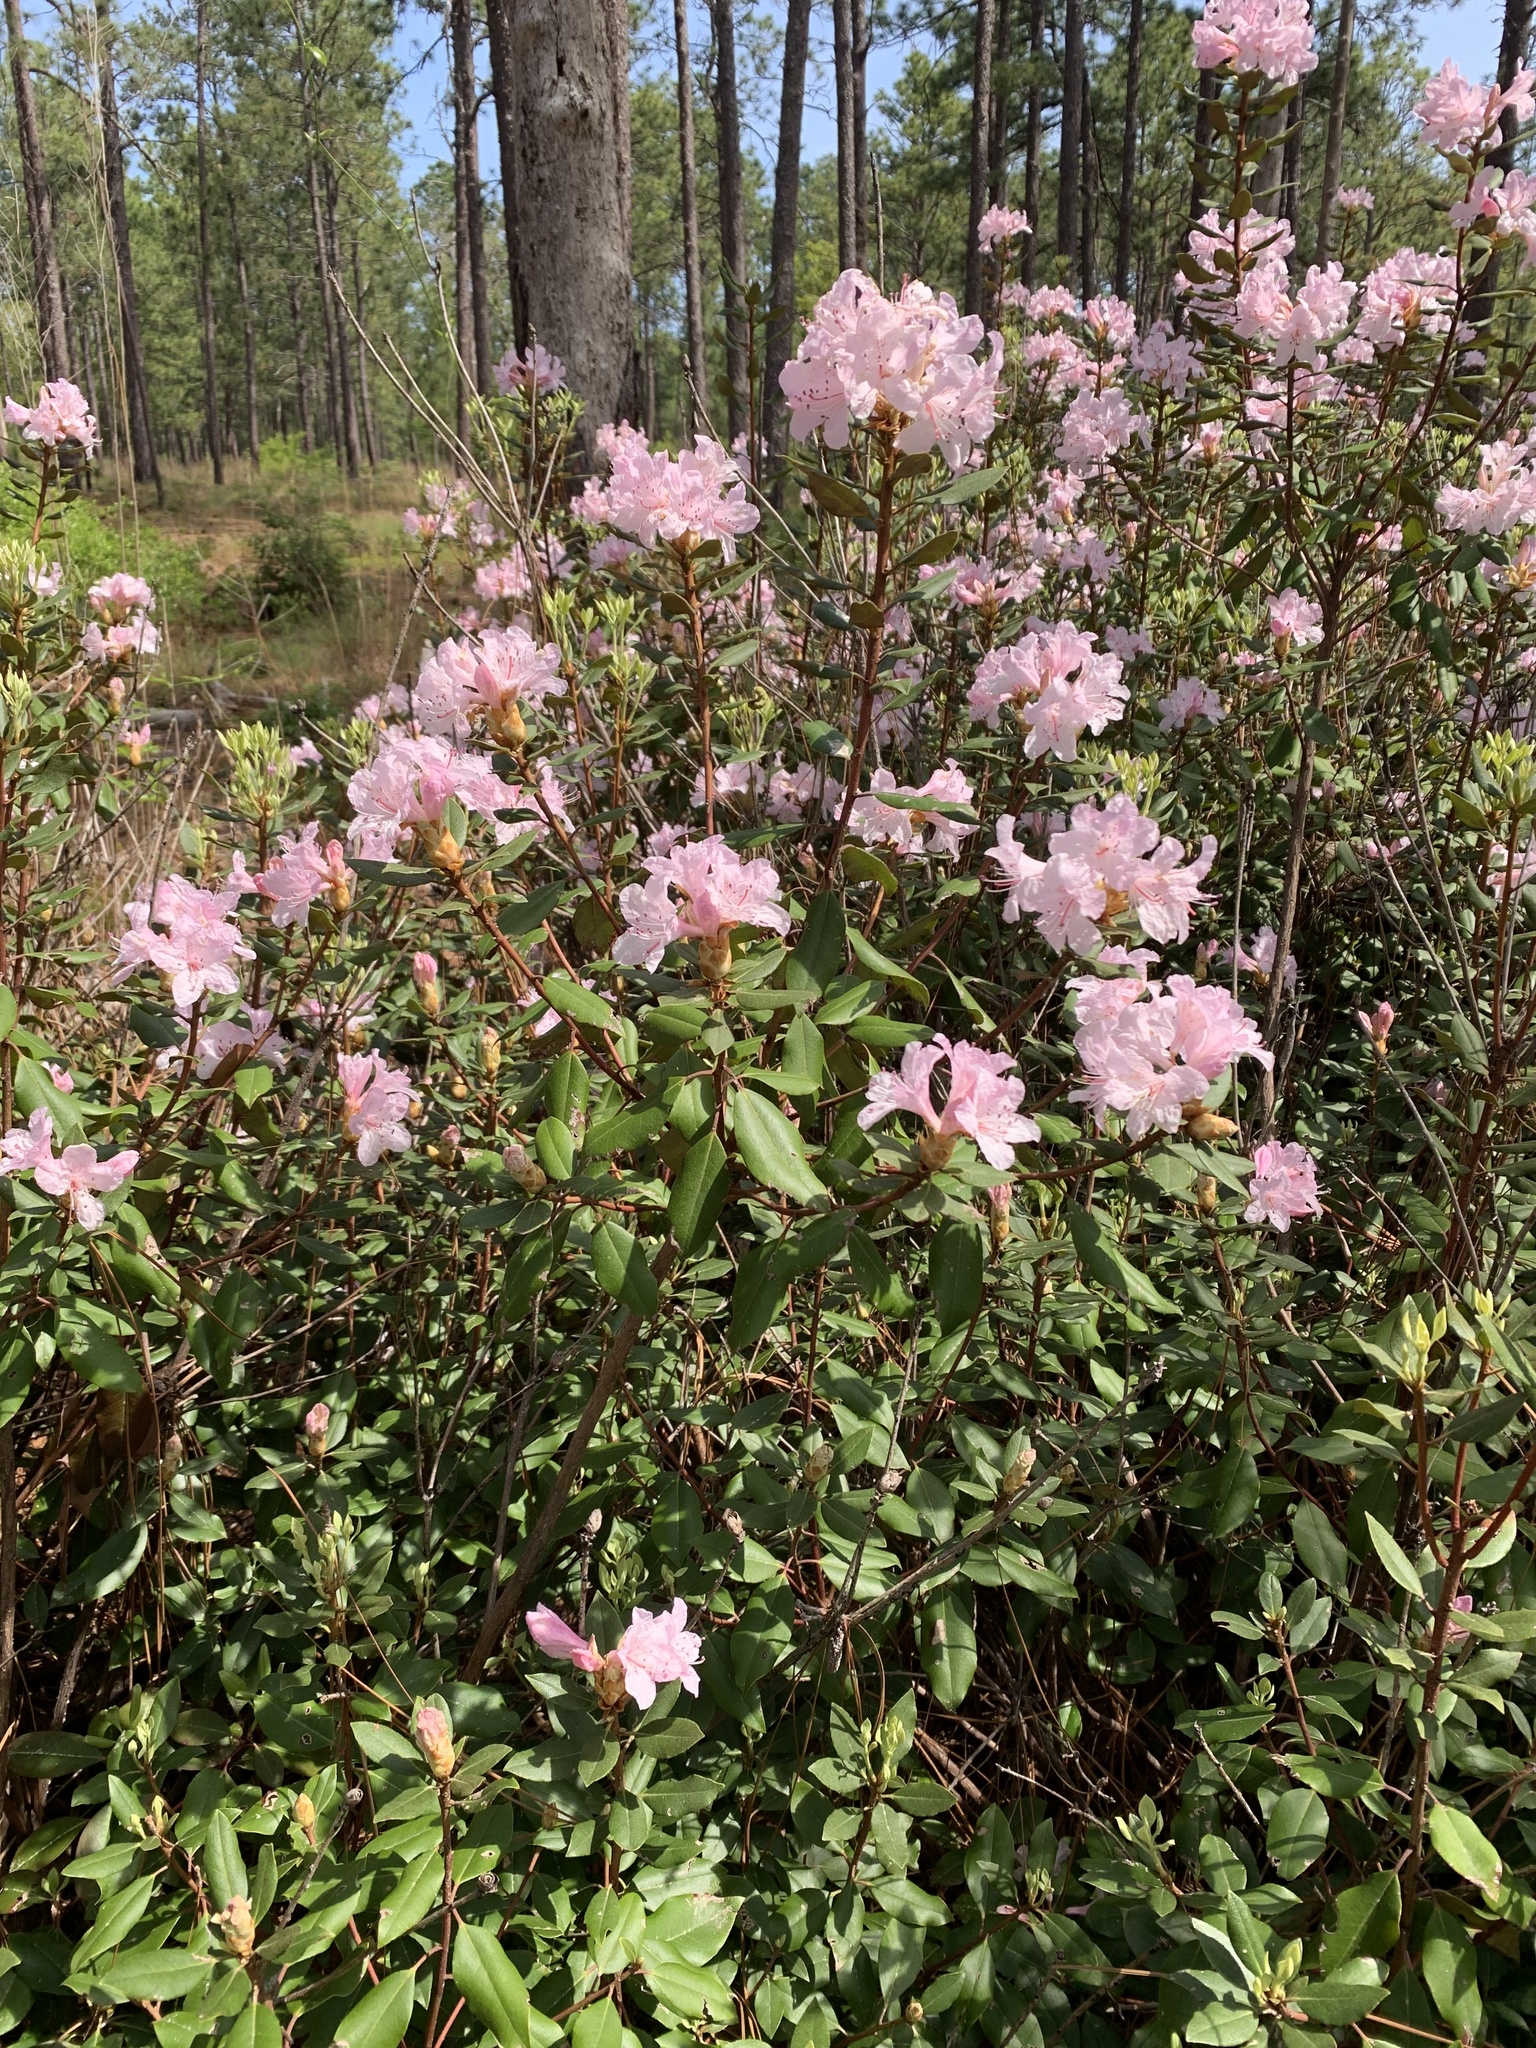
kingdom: Plantae
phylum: Tracheophyta
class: Magnoliopsida
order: Ericales
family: Ericaceae
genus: Rhododendron
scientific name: Rhododendron minus
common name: Piedmont rhododendron
